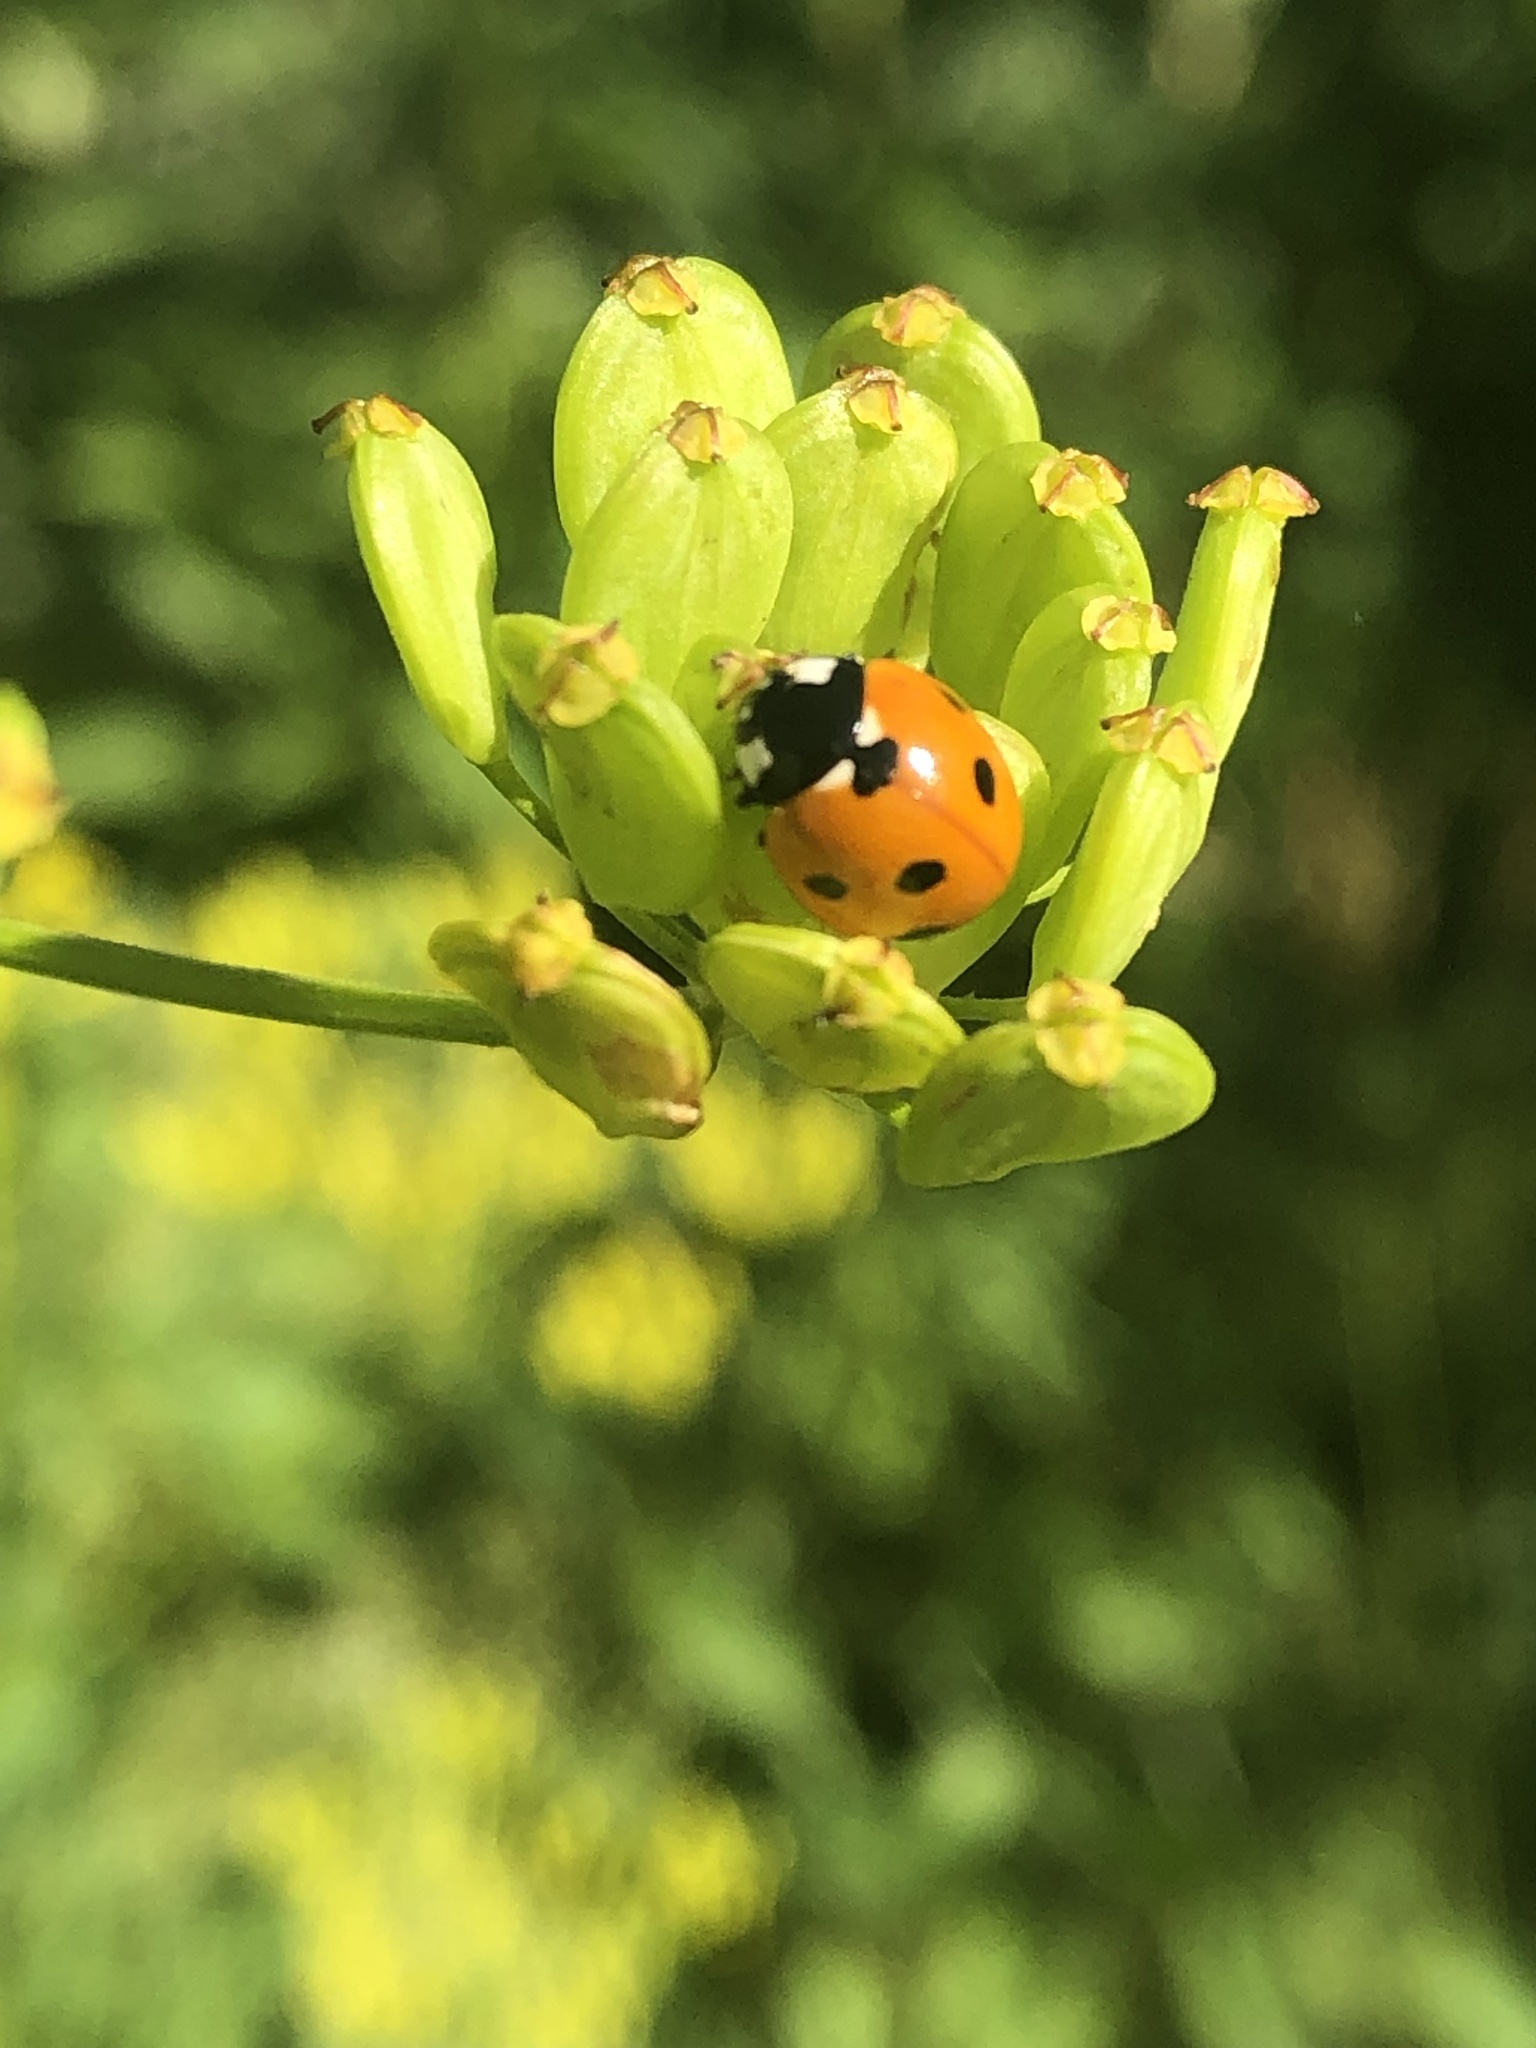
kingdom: Animalia
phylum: Arthropoda
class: Insecta
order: Coleoptera
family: Coccinellidae
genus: Coccinella
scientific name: Coccinella septempunctata
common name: Sevenspotted lady beetle
